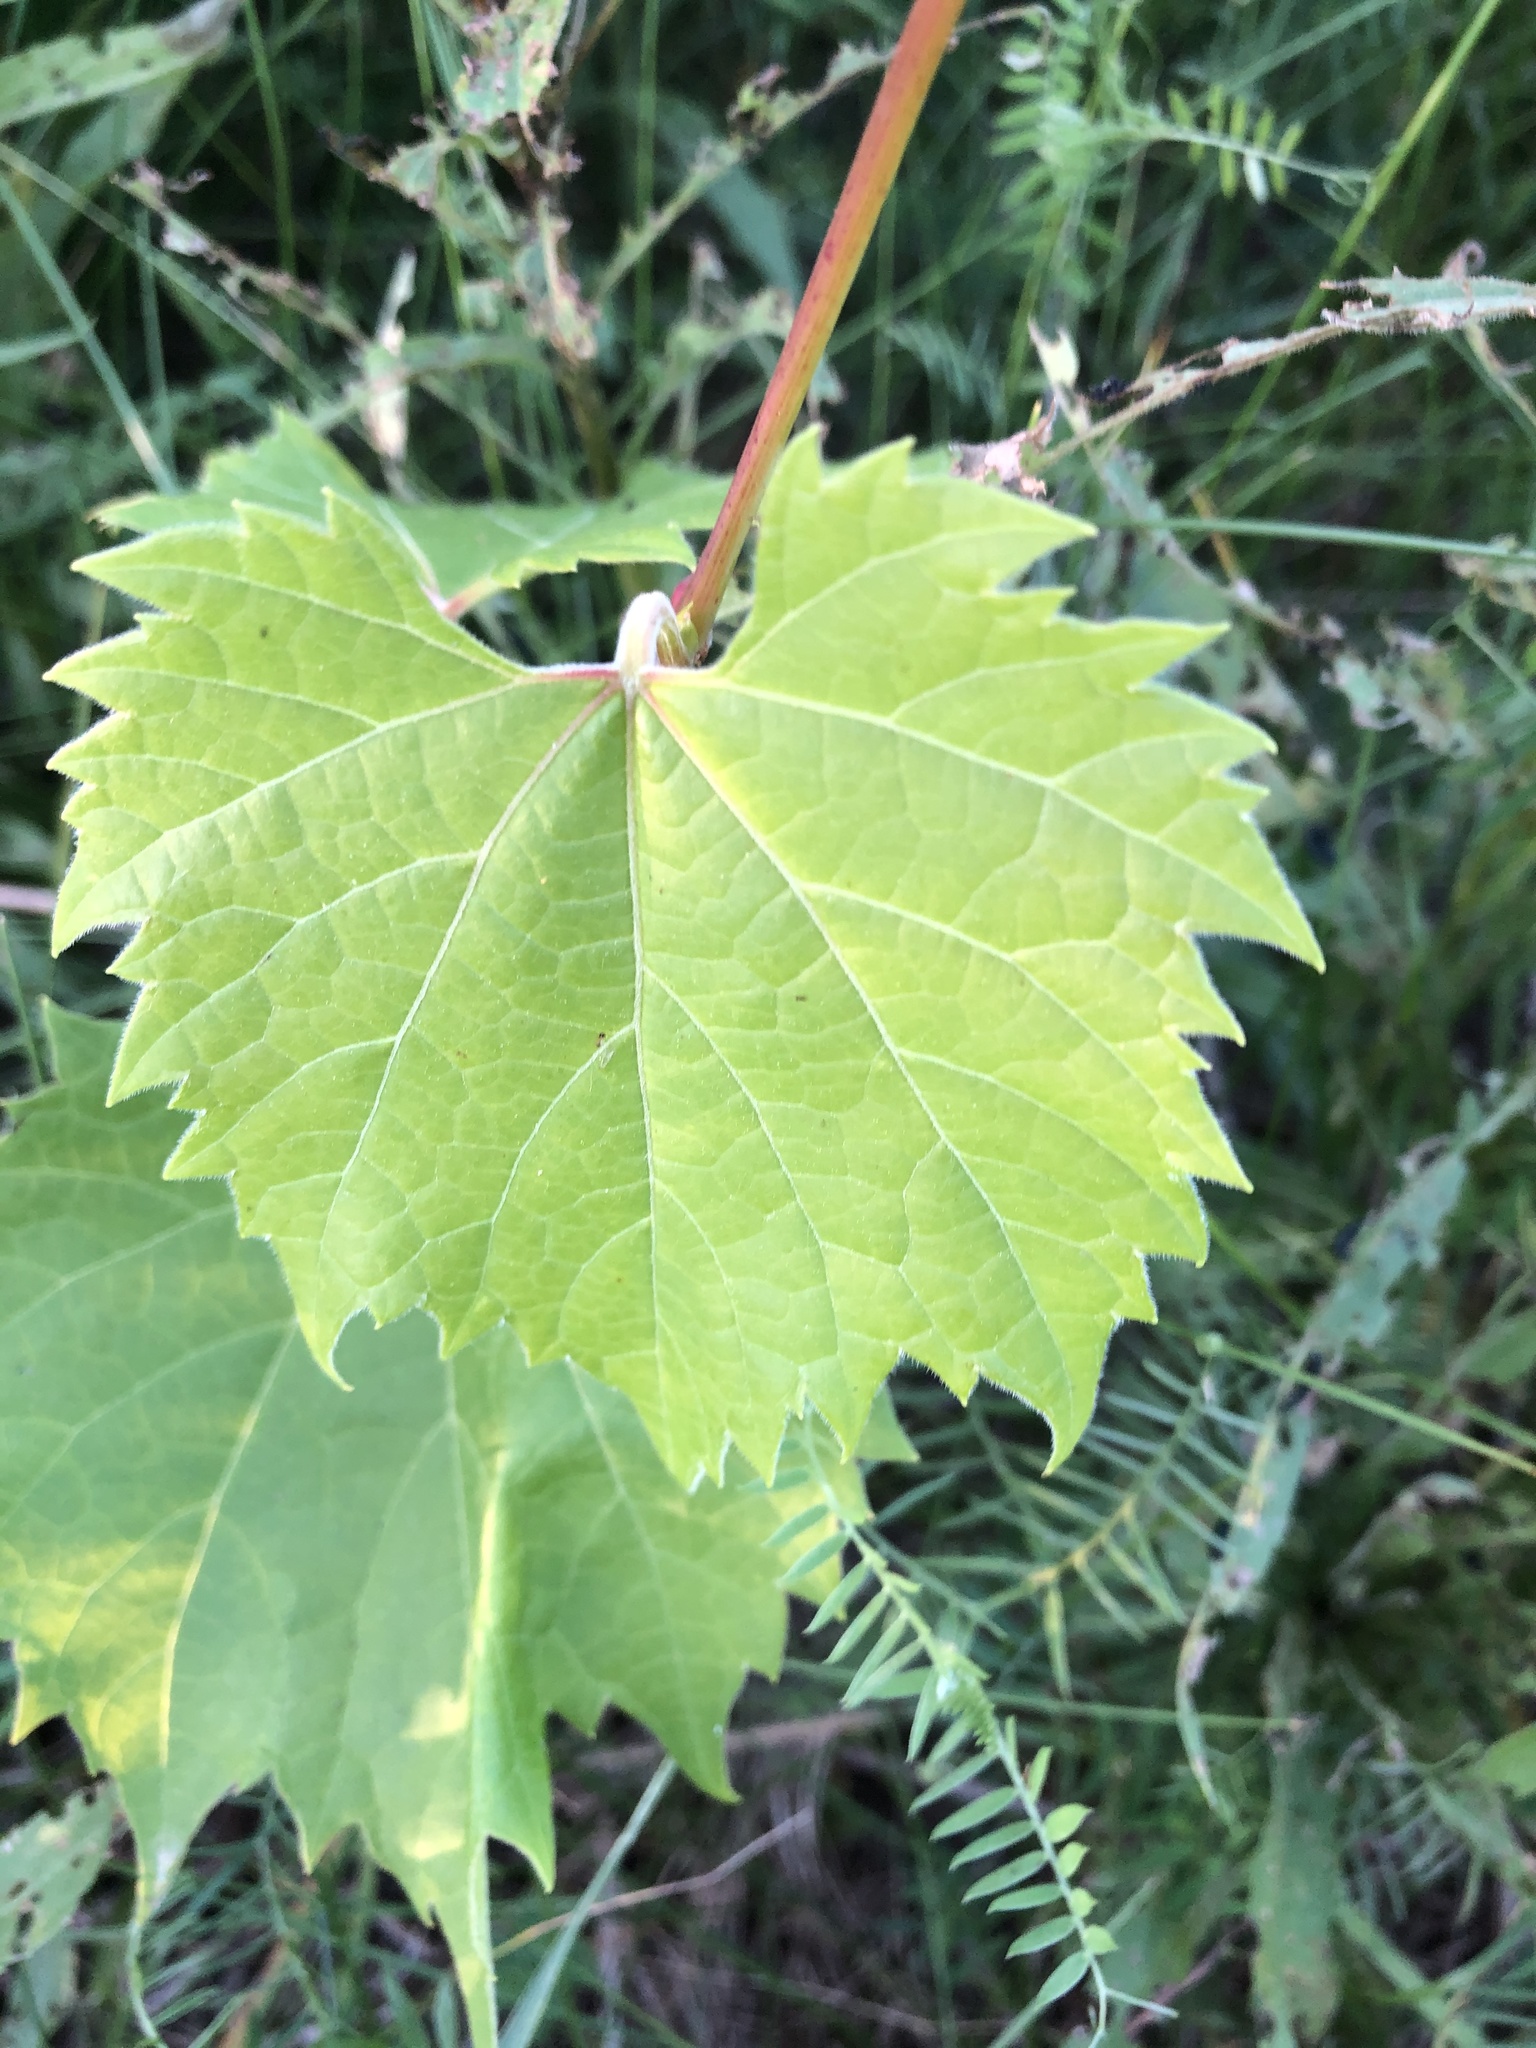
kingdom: Plantae
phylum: Tracheophyta
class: Magnoliopsida
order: Vitales
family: Vitaceae
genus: Vitis
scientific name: Vitis riparia
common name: Frost grape
